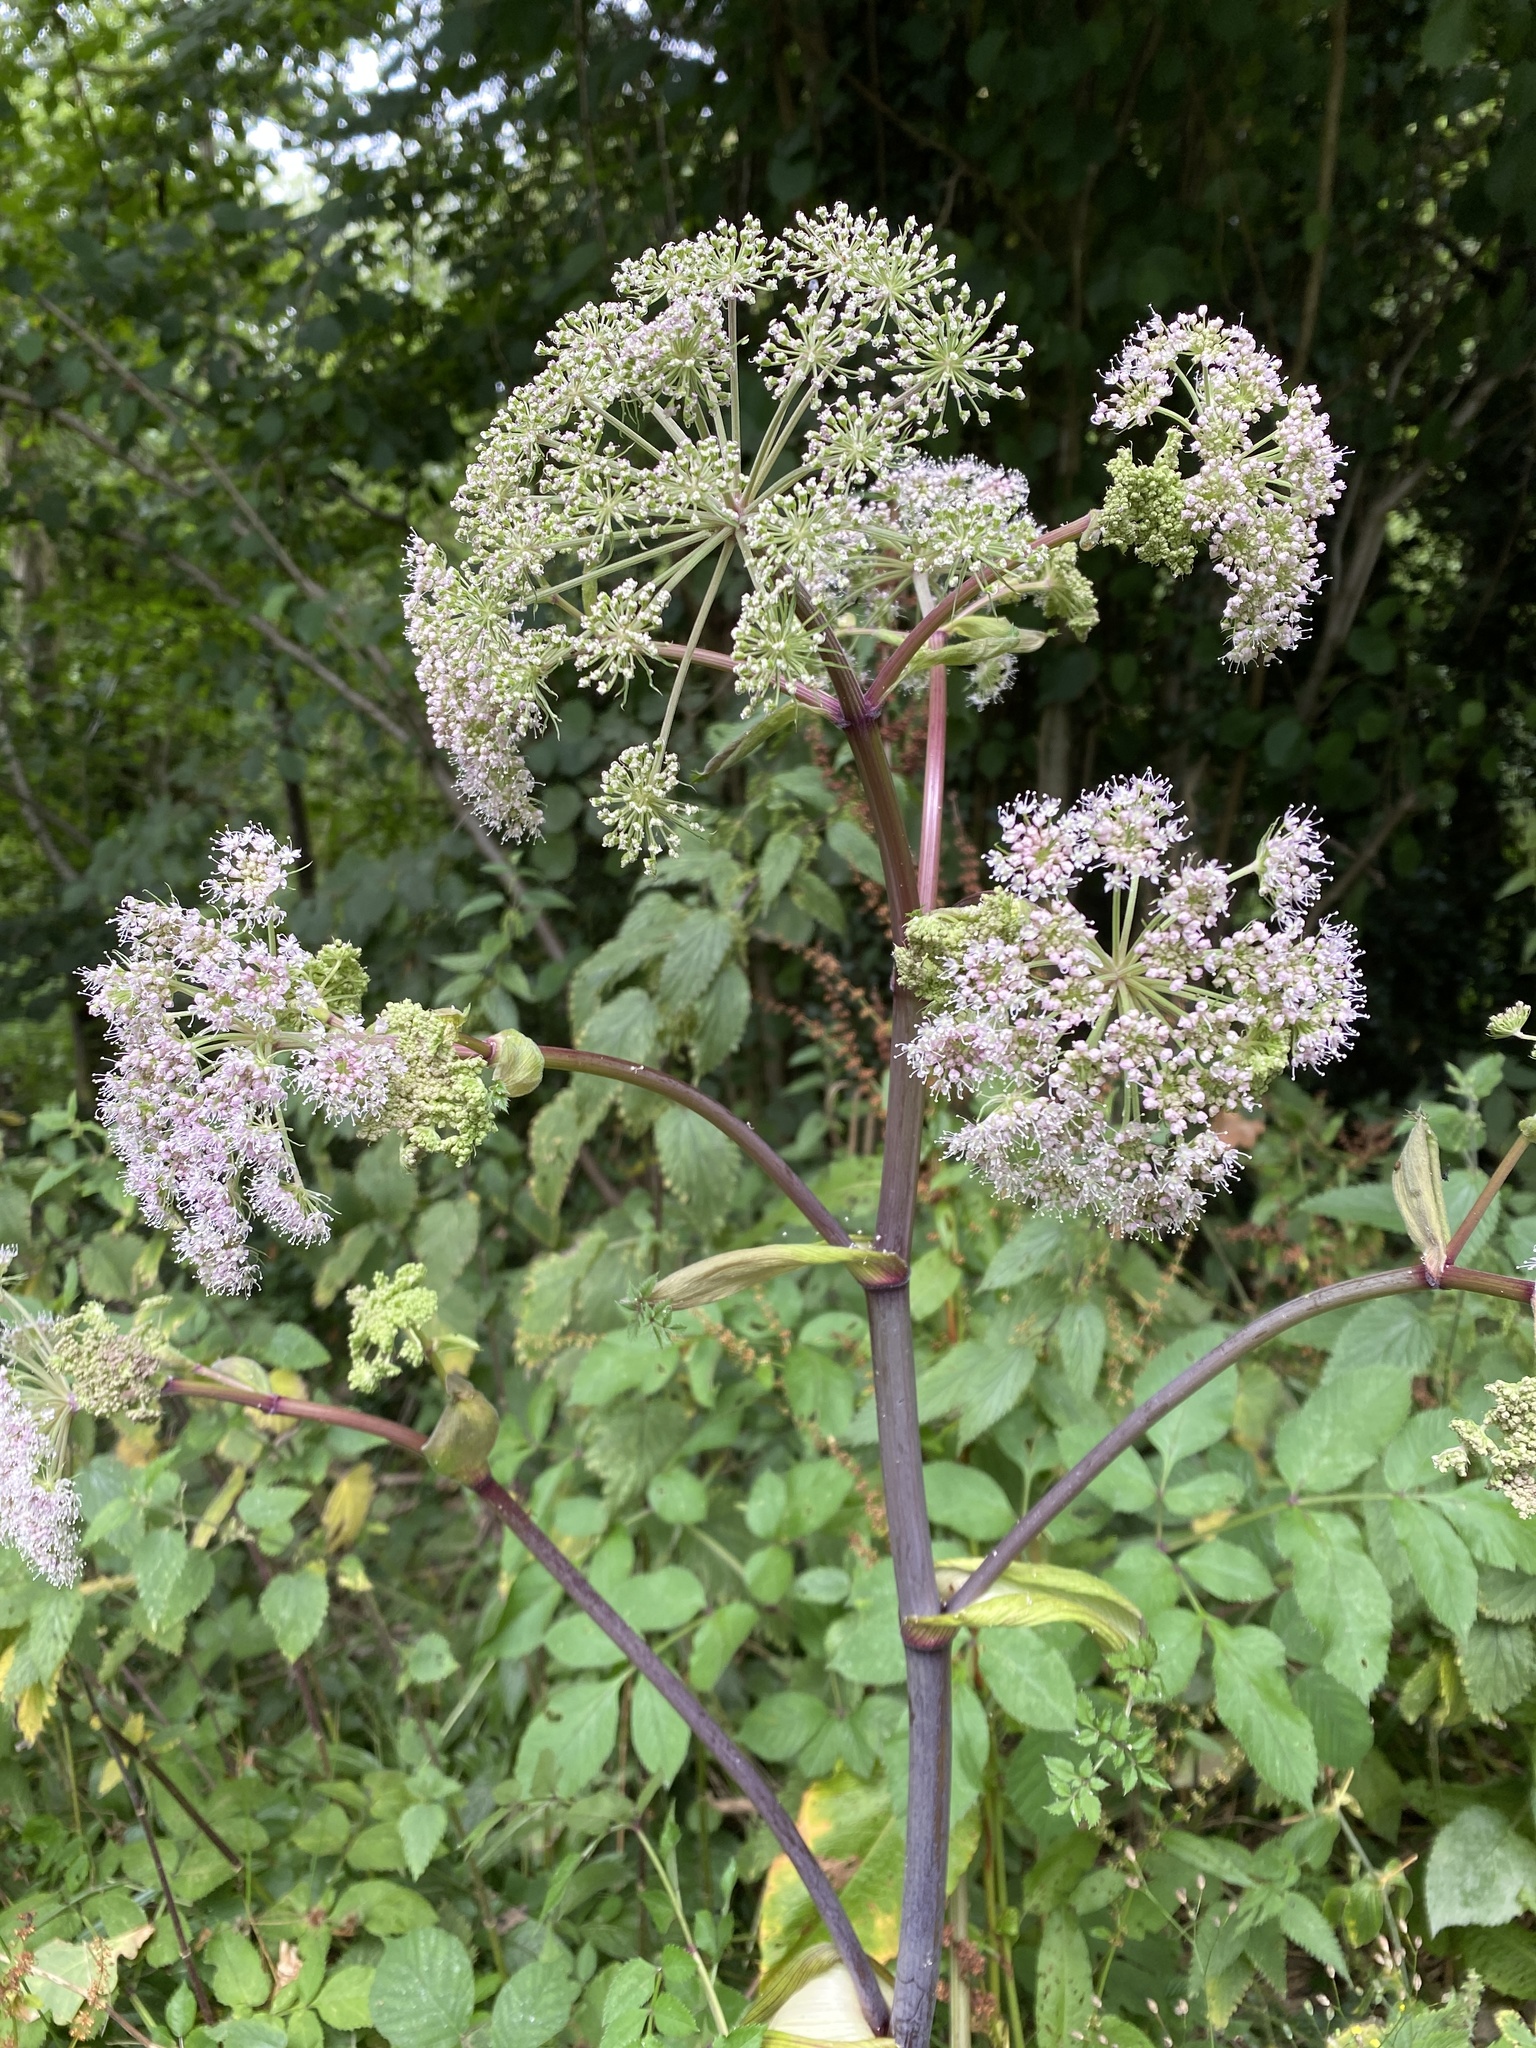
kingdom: Plantae
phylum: Tracheophyta
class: Magnoliopsida
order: Apiales
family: Apiaceae
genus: Angelica
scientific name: Angelica sylvestris
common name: Wild angelica
